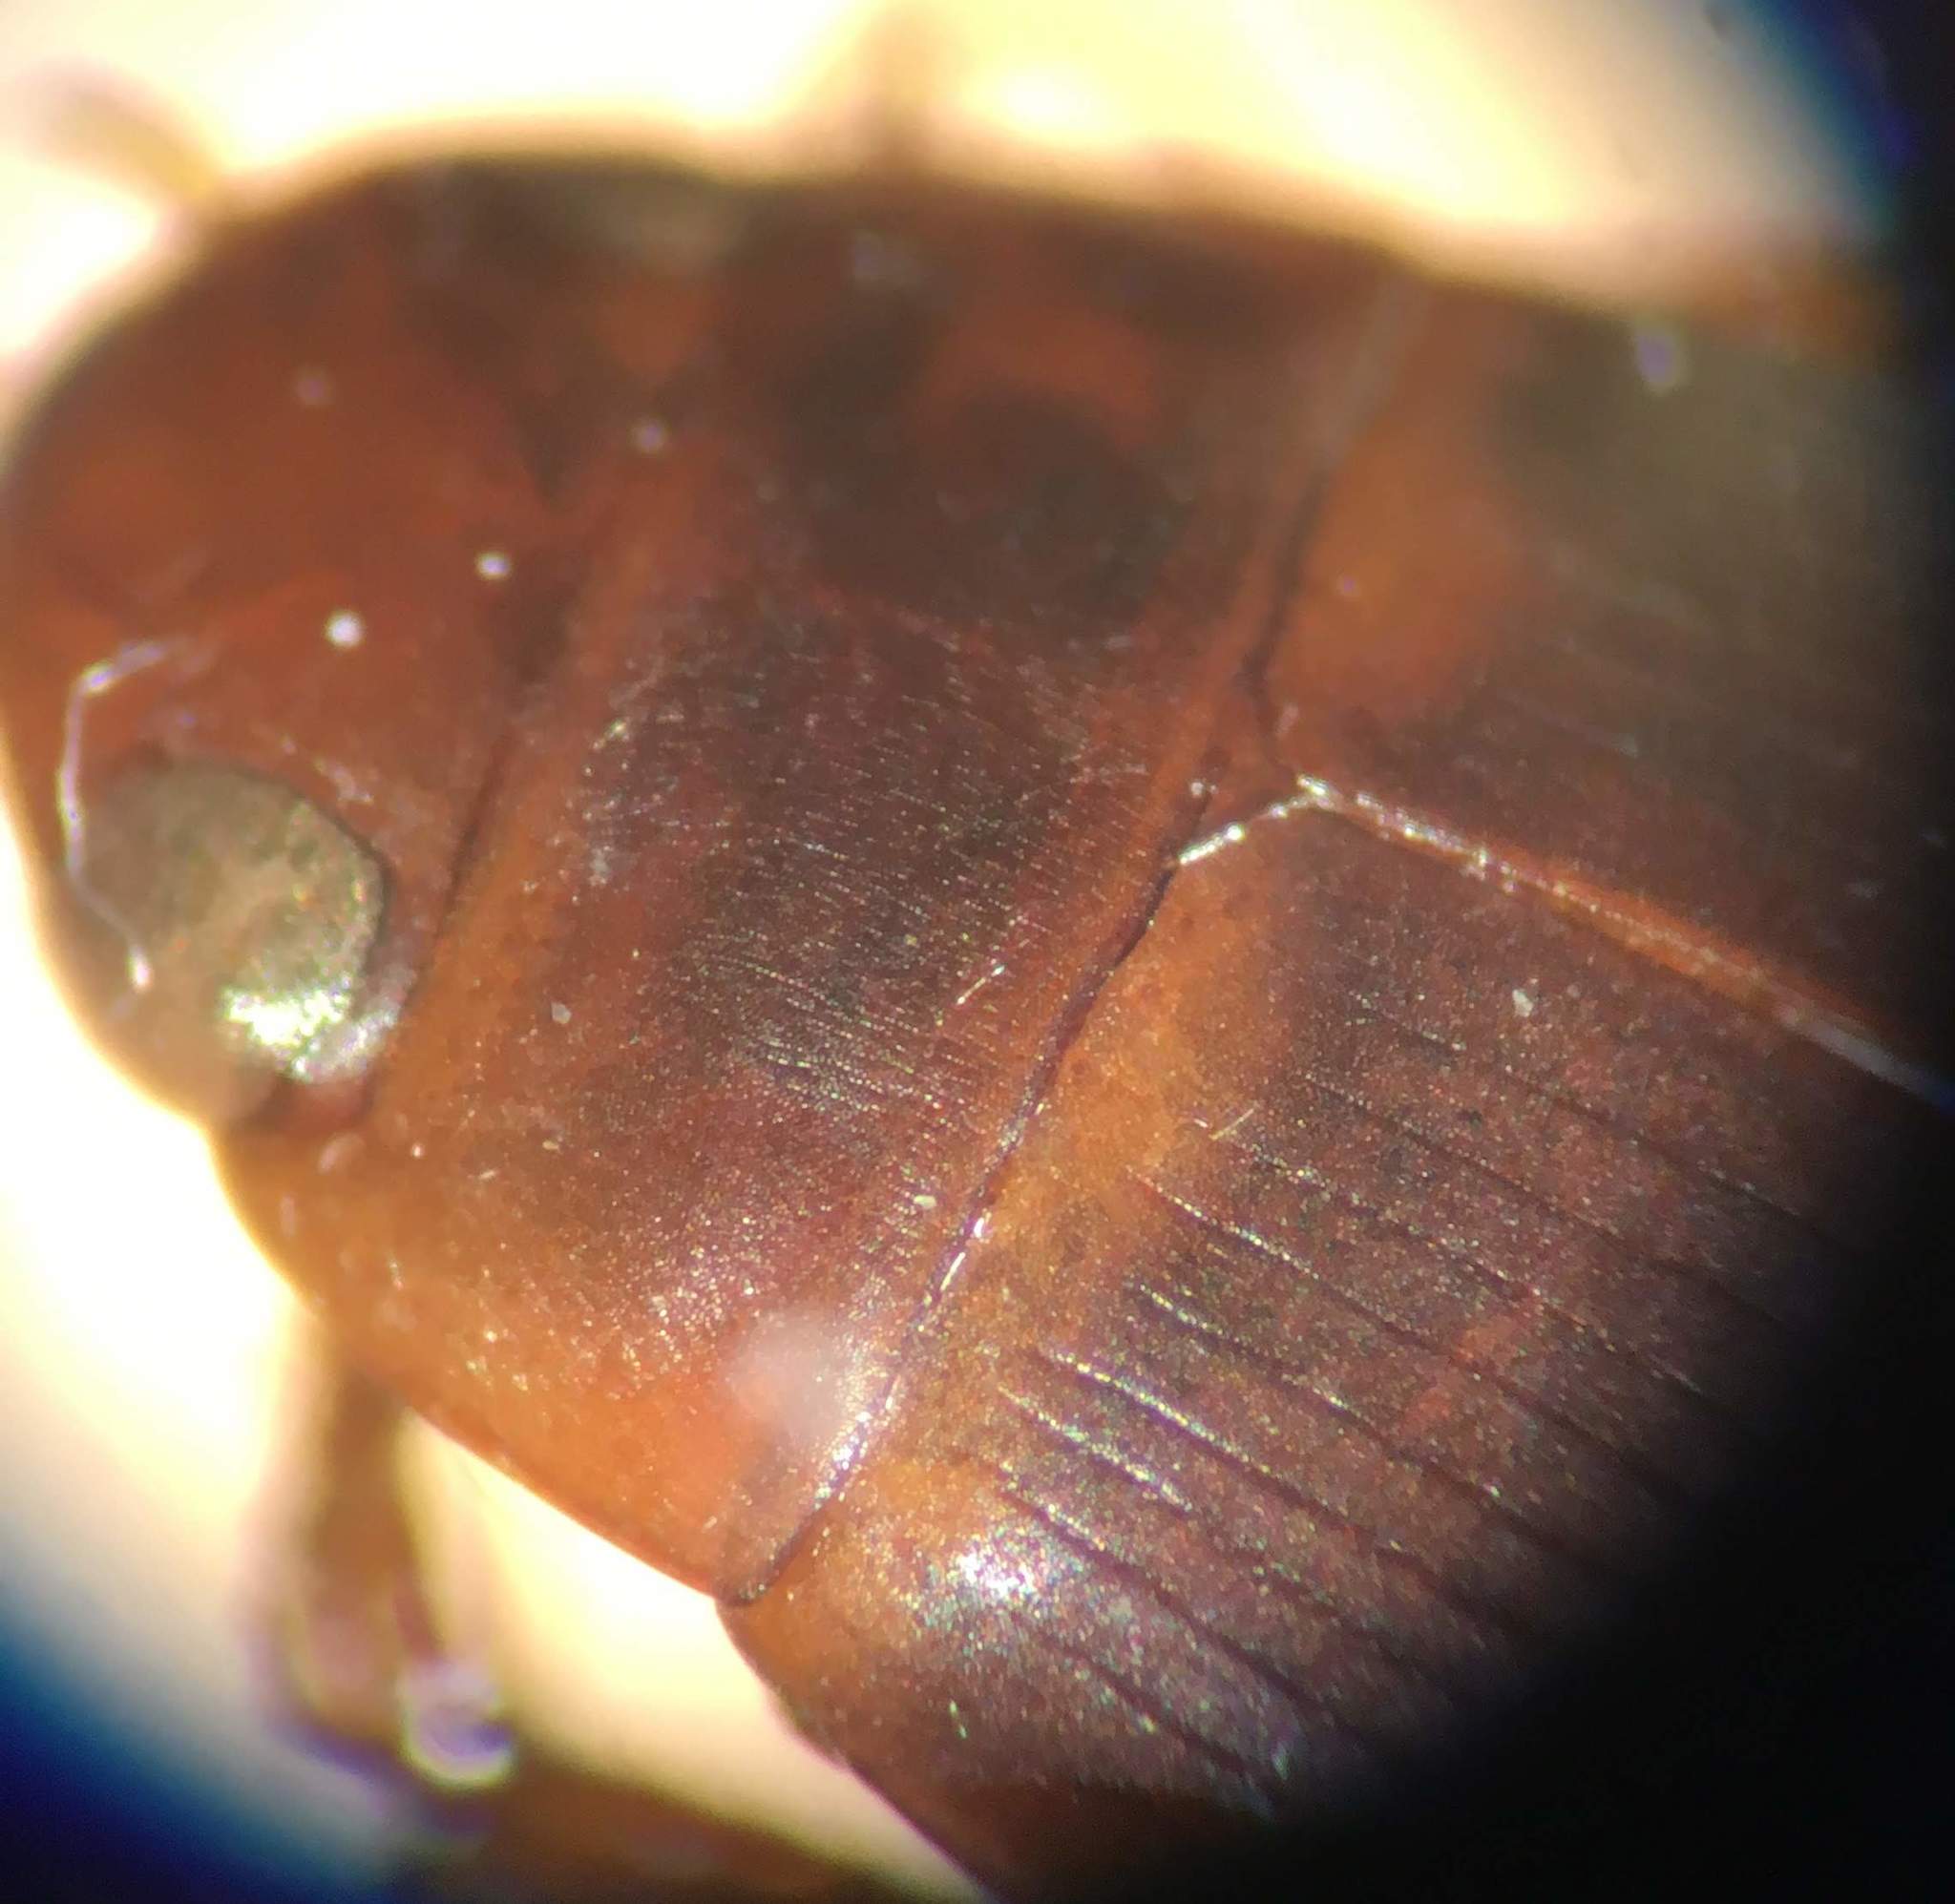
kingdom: Animalia
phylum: Arthropoda
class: Insecta
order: Coleoptera
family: Dytiscidae
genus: Copelatus
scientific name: Copelatus caelatipennis
